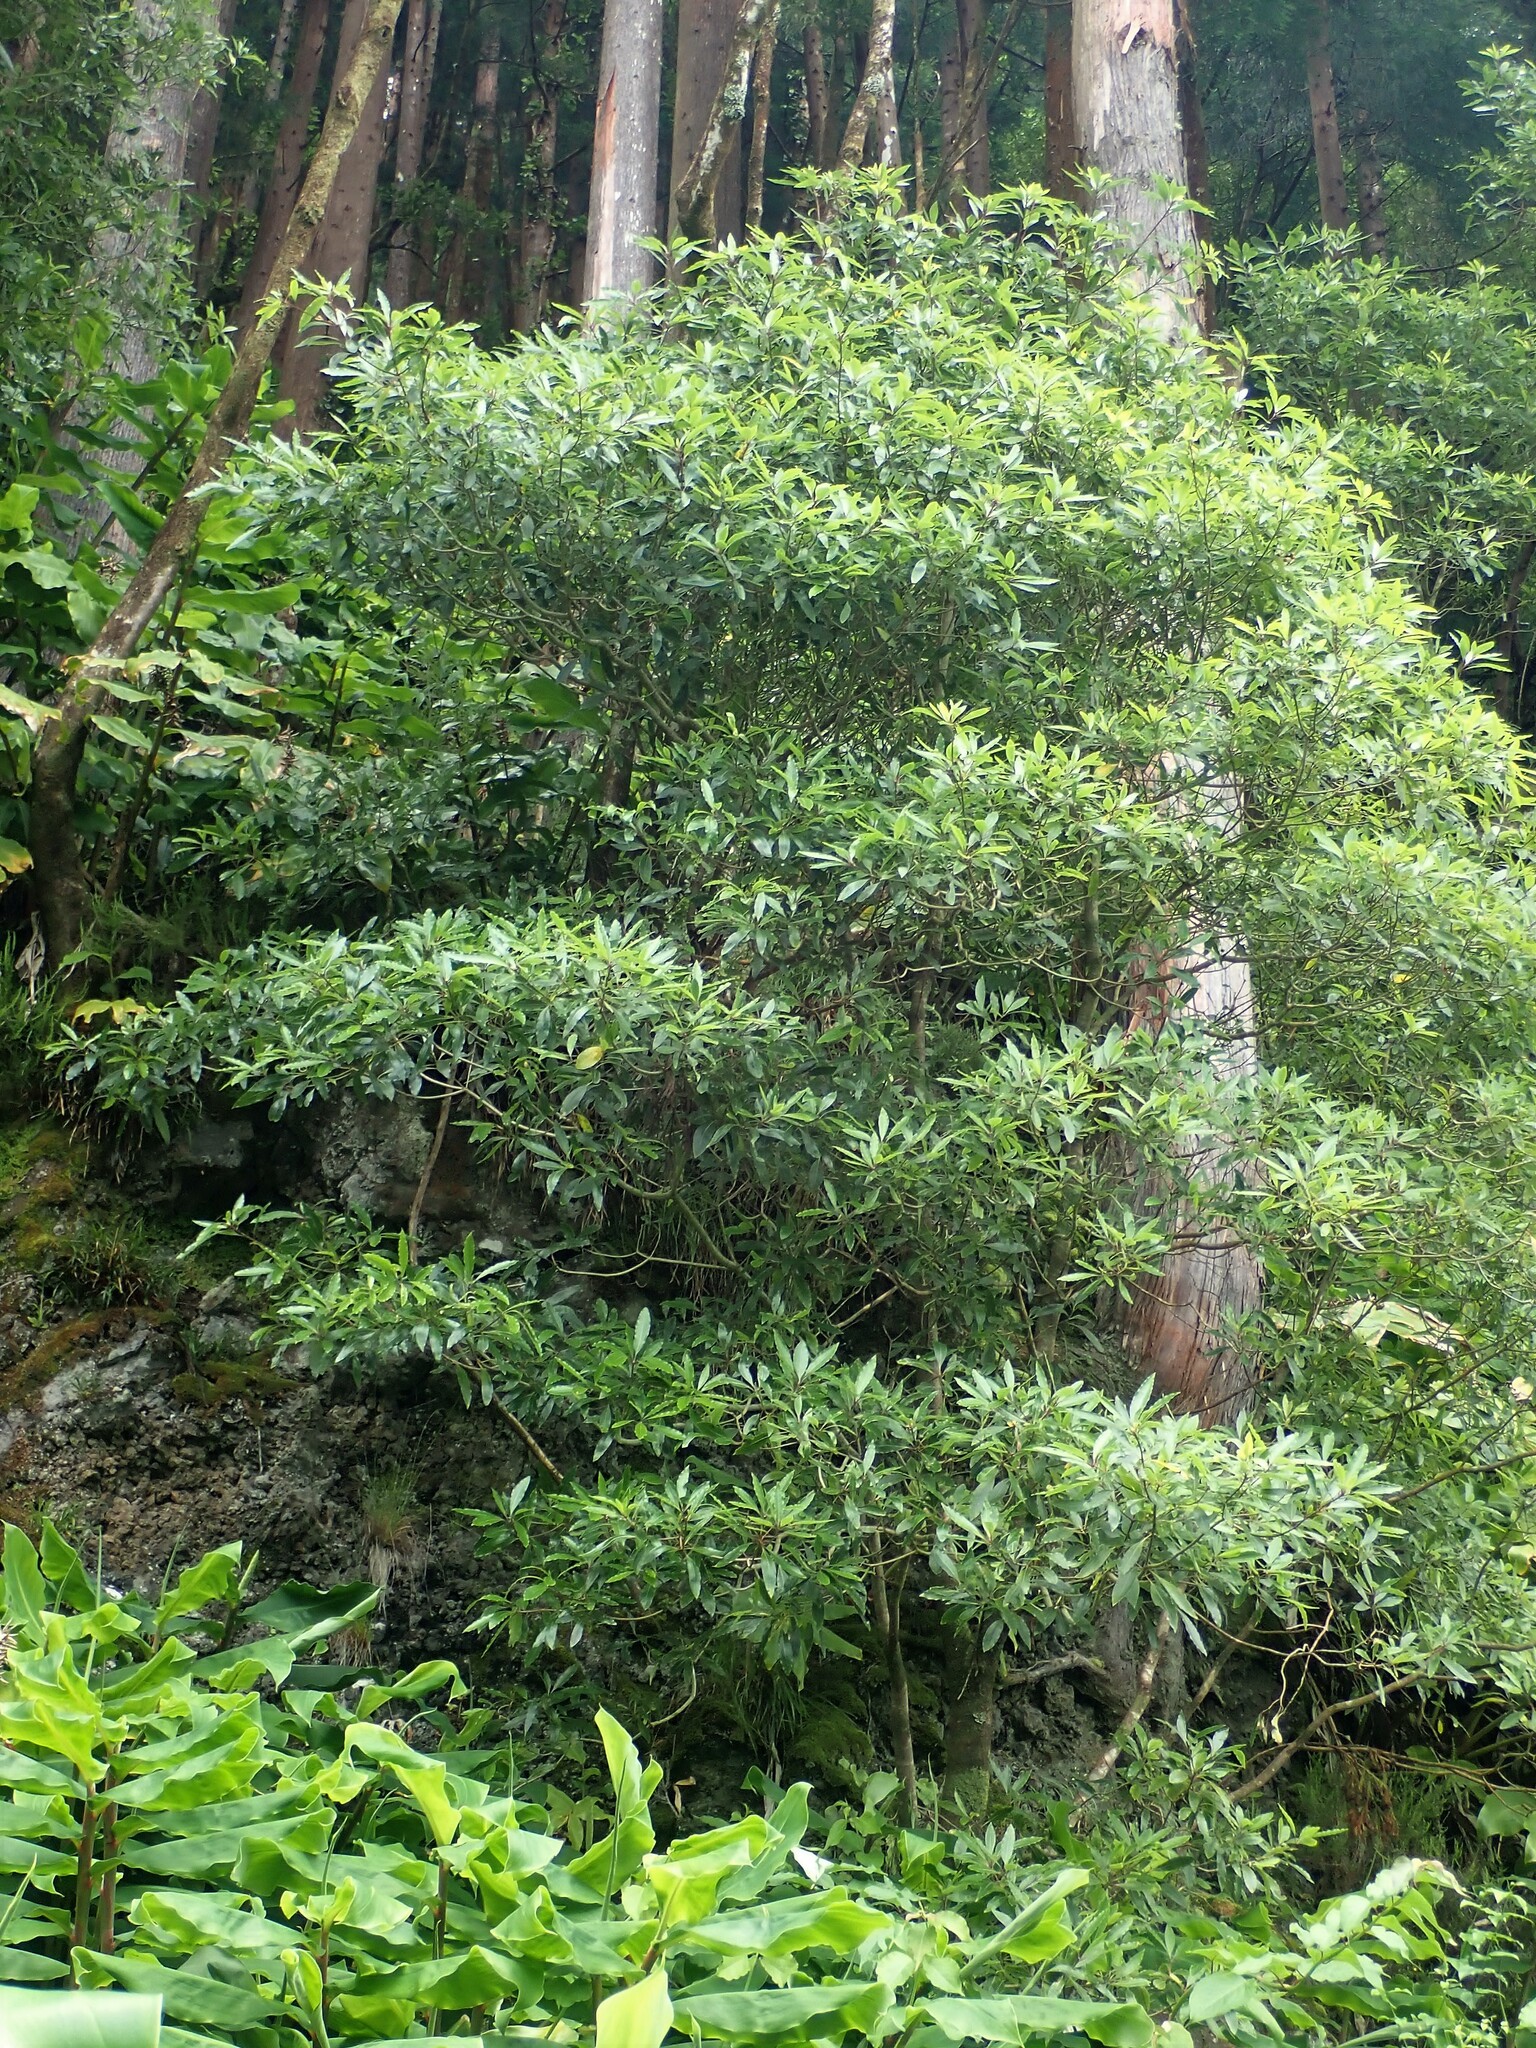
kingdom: Plantae
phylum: Tracheophyta
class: Magnoliopsida
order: Apiales
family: Pittosporaceae
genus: Pittosporum
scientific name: Pittosporum undulatum
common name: Australian cheesewood
